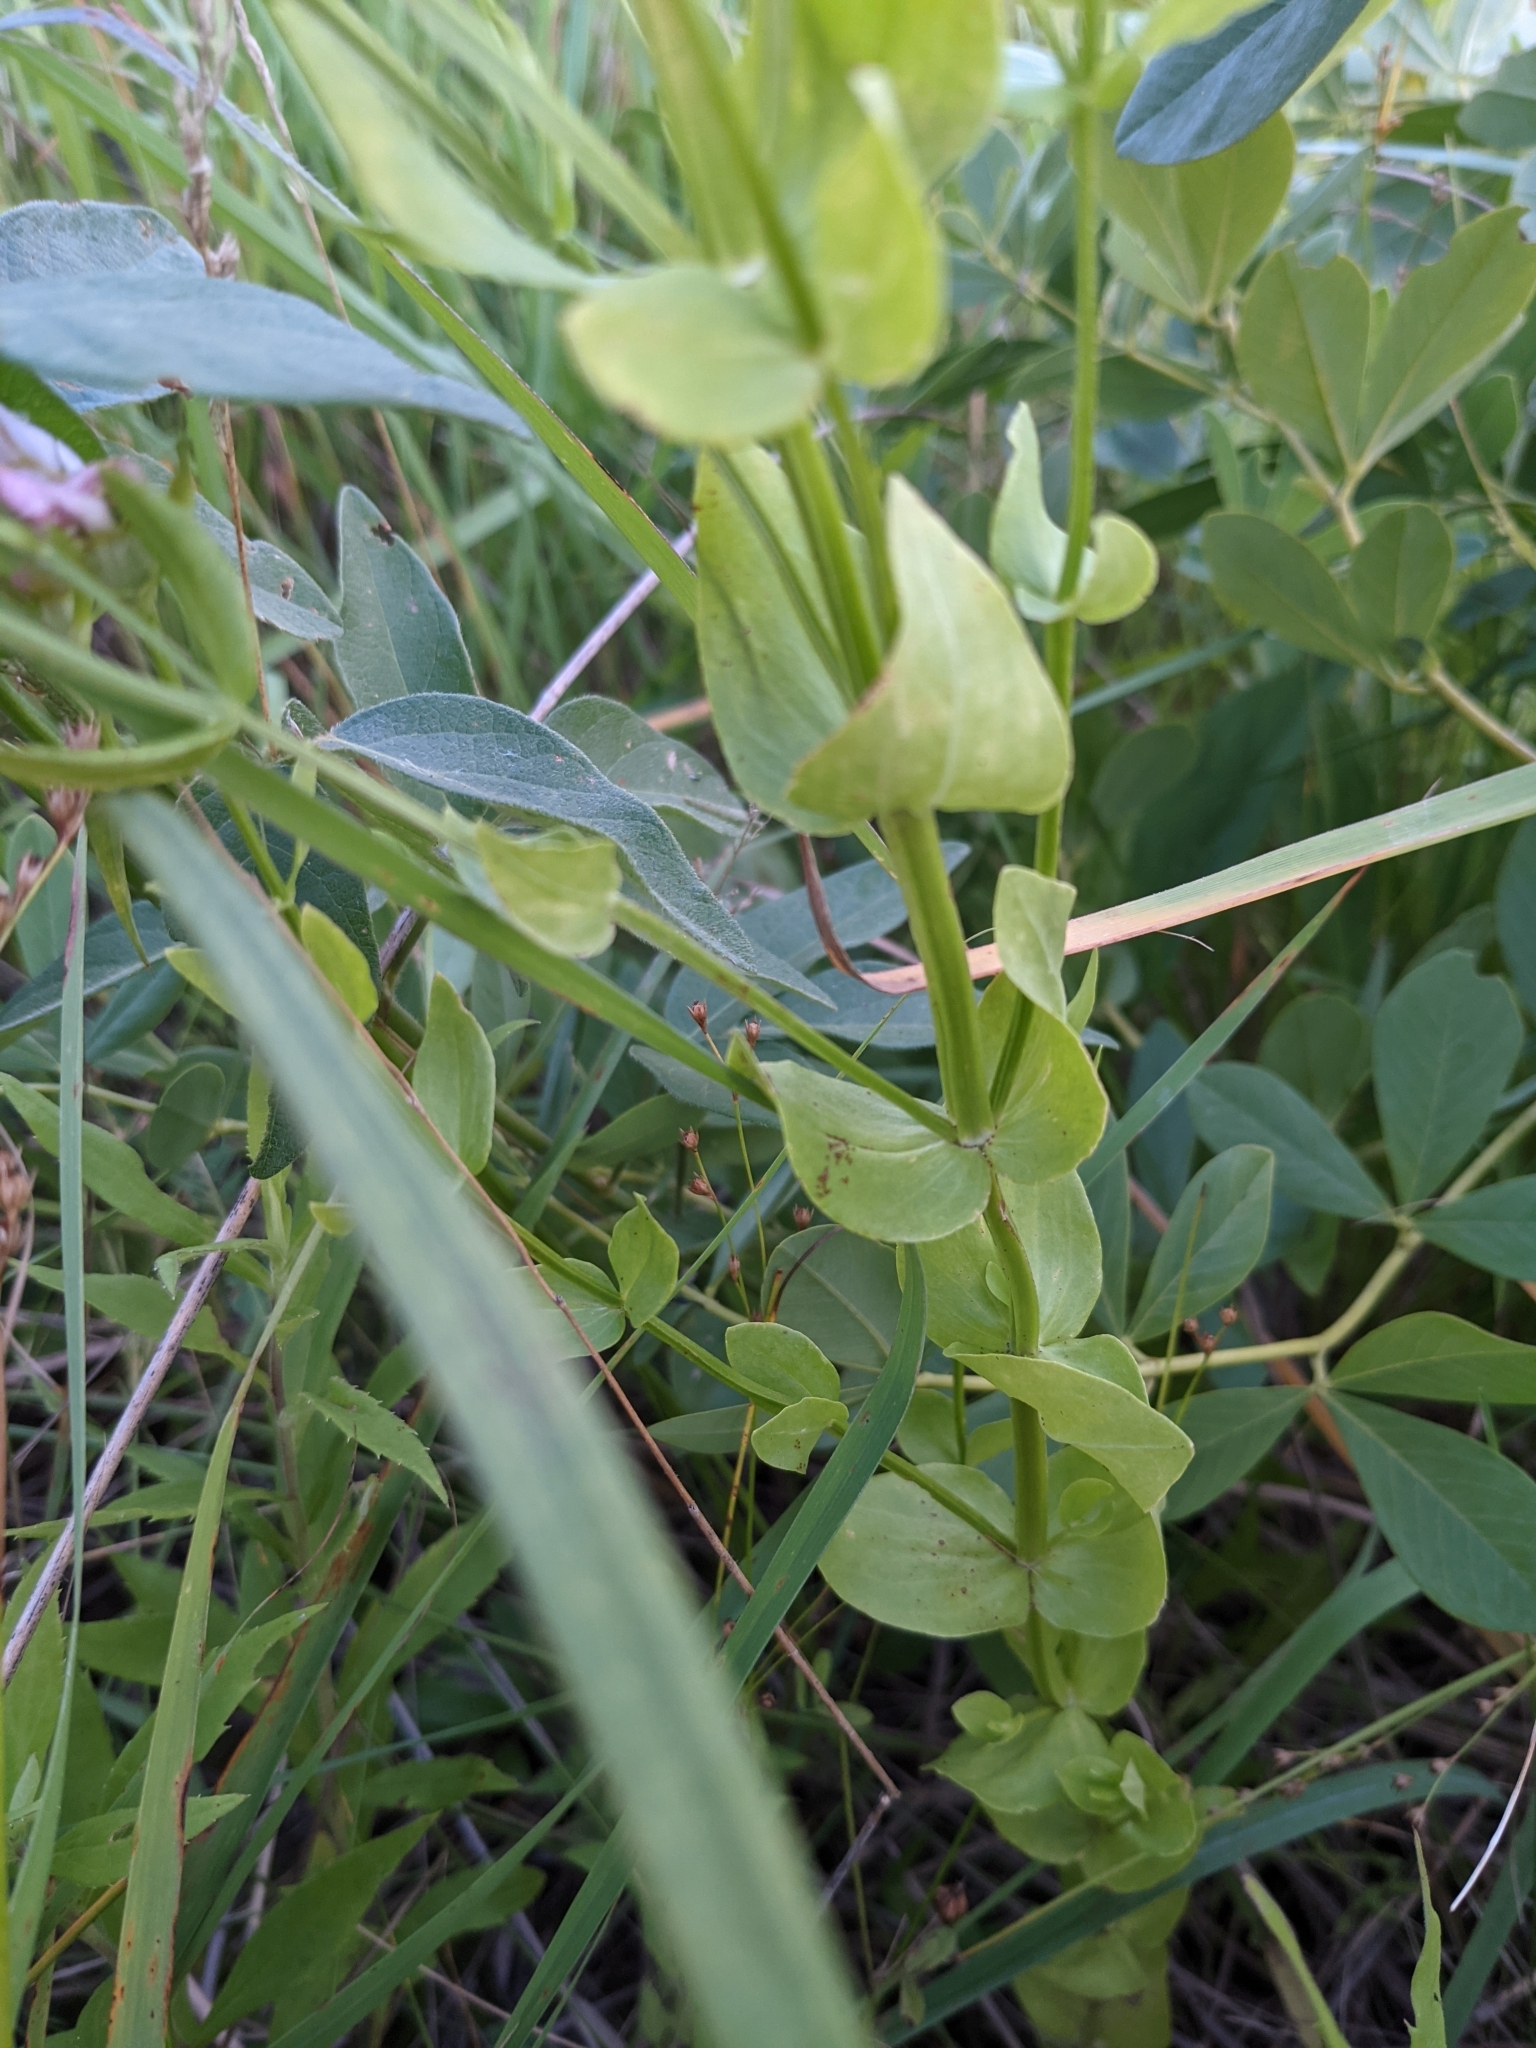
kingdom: Plantae
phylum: Tracheophyta
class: Magnoliopsida
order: Gentianales
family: Gentianaceae
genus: Sabatia
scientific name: Sabatia angularis
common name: Rose-pink
